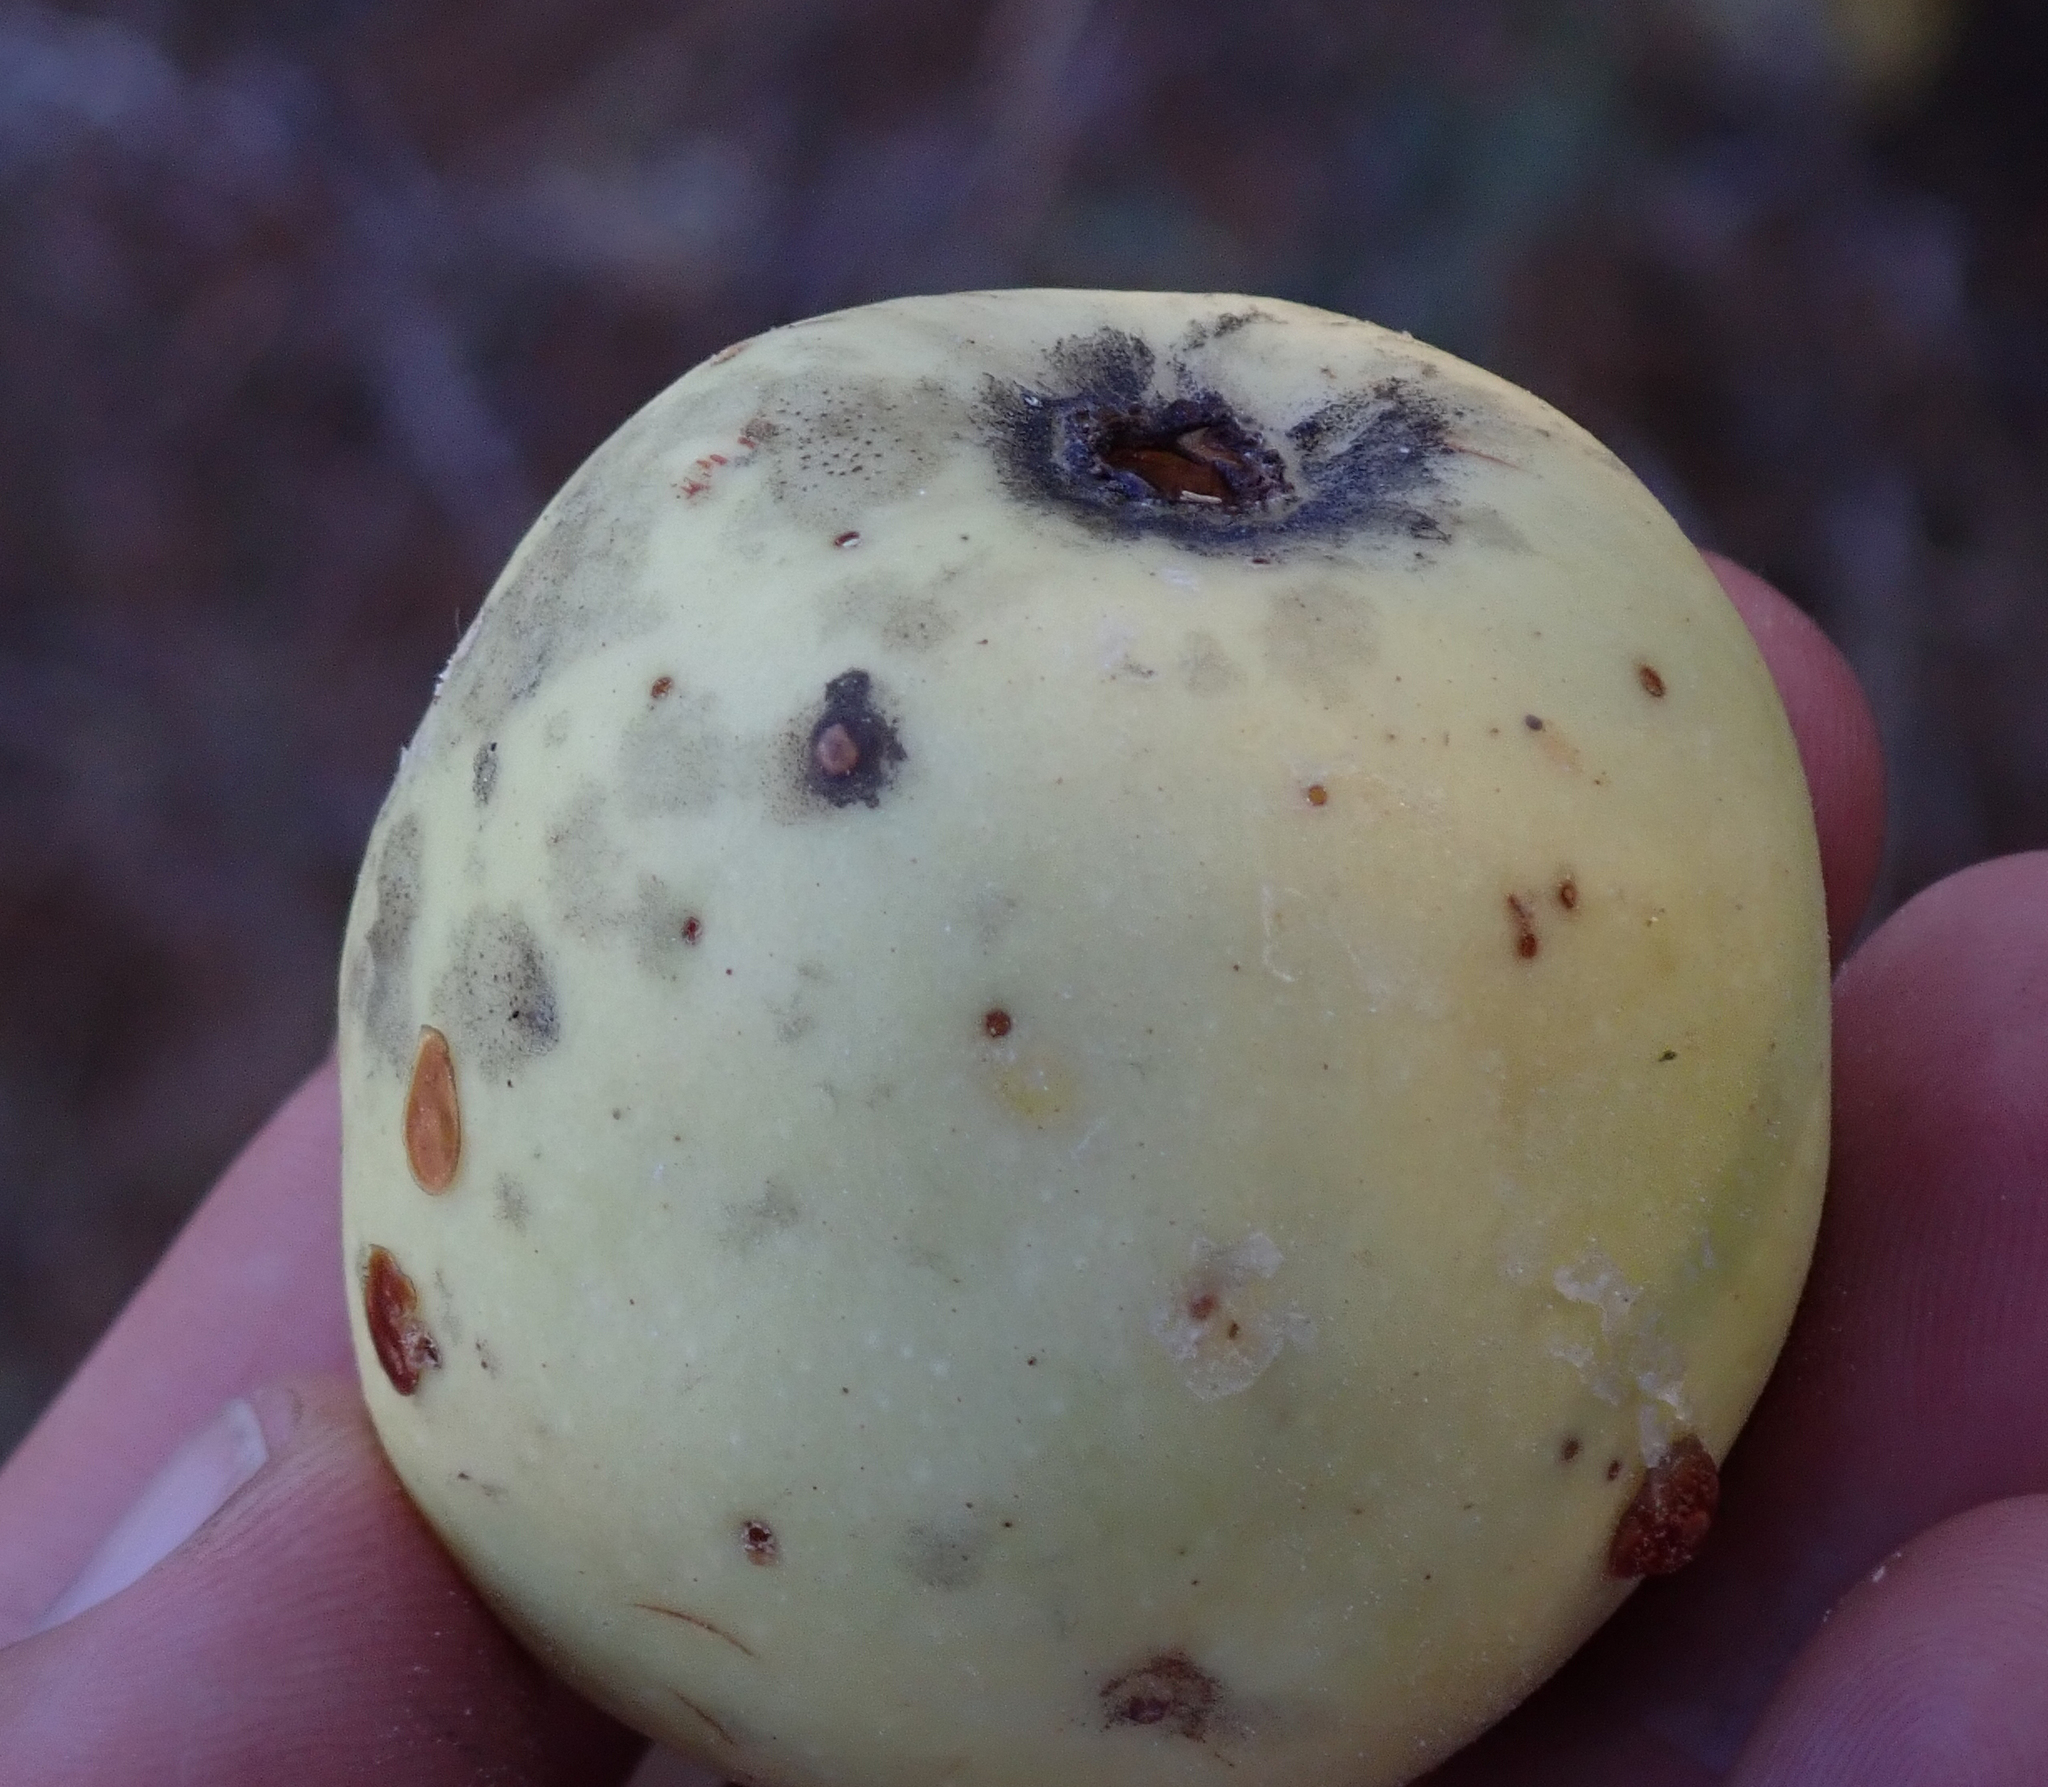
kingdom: Plantae
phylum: Tracheophyta
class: Magnoliopsida
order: Sapindales
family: Anacardiaceae
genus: Sclerocarya
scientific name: Sclerocarya birrea
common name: Marula
